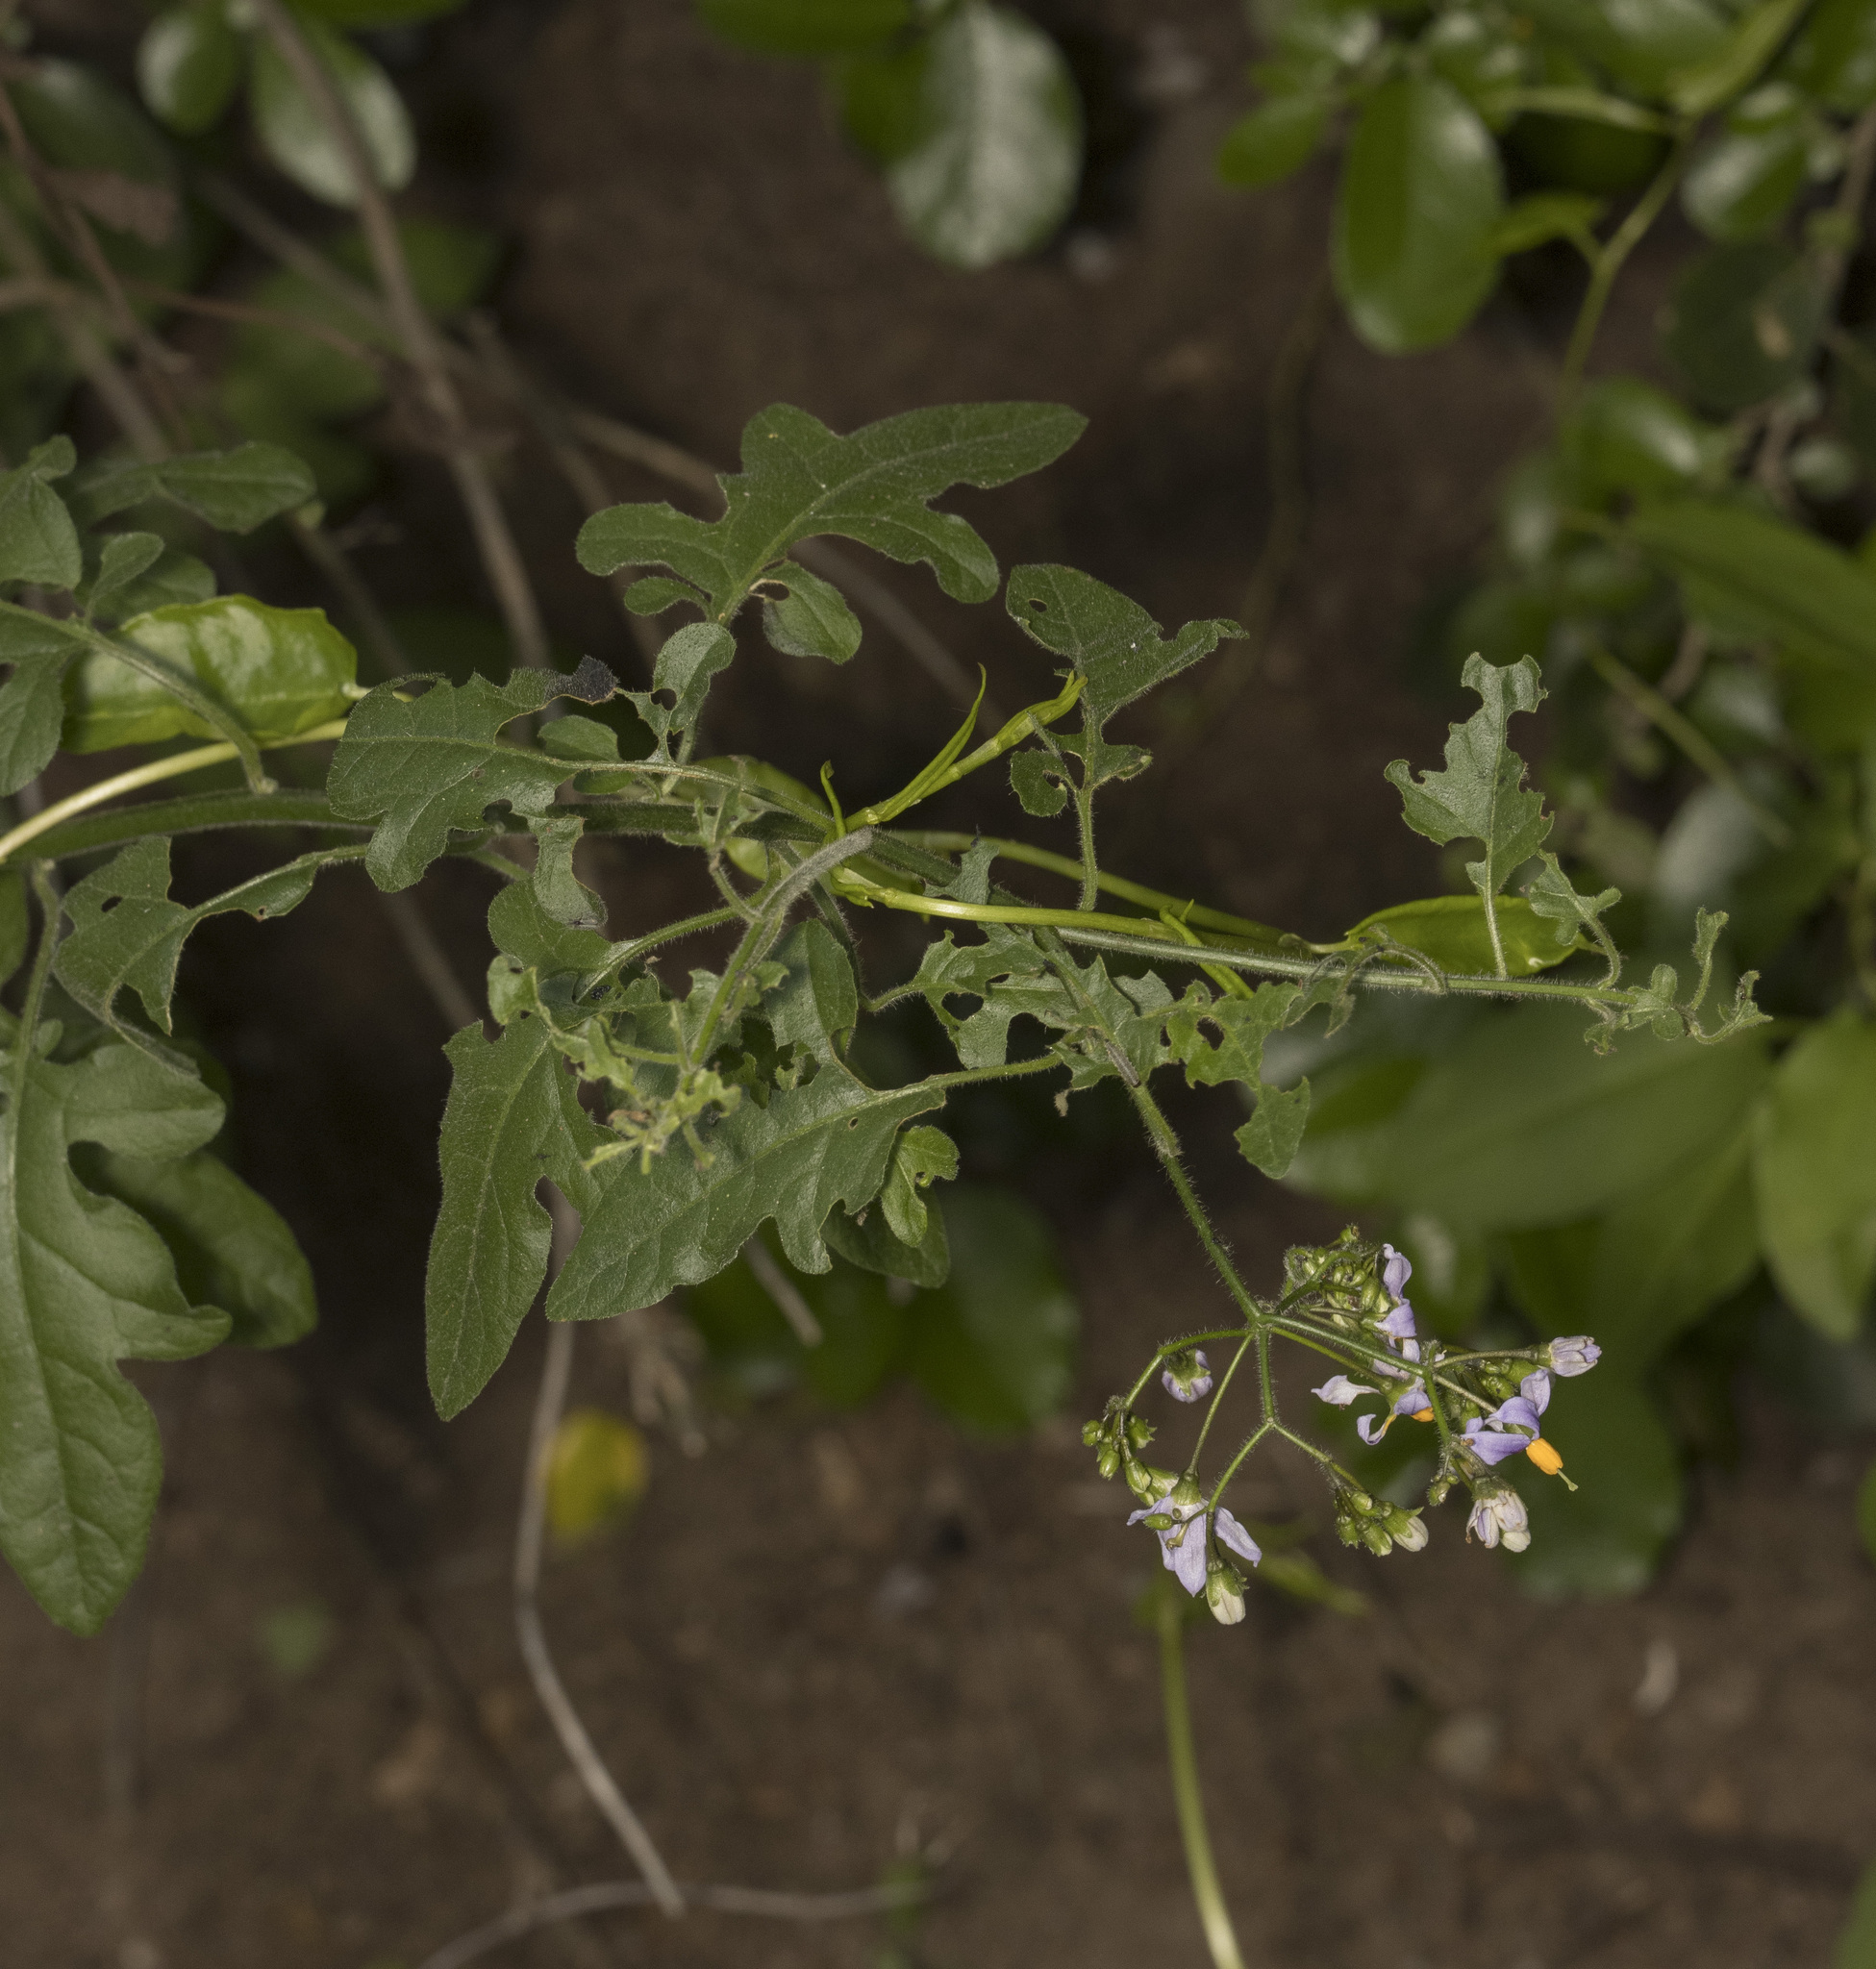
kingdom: Plantae
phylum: Tracheophyta
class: Magnoliopsida
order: Solanales
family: Solanaceae
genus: Solanum
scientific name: Solanum alphonsi
